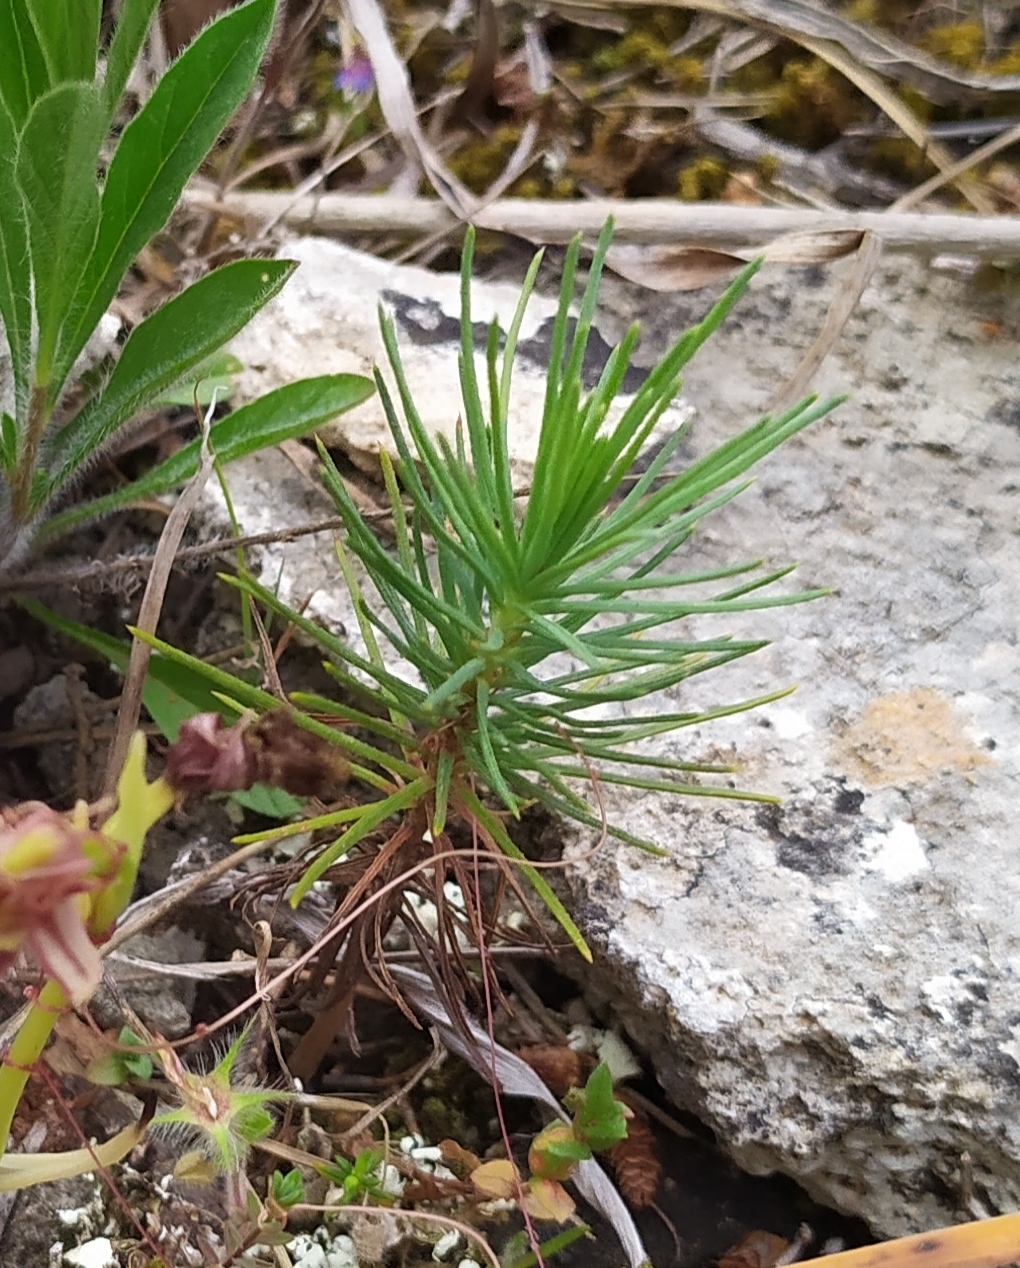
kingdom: Plantae
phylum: Tracheophyta
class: Pinopsida
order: Pinales
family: Pinaceae
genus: Pinus
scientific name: Pinus halepensis
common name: Aleppo pine
